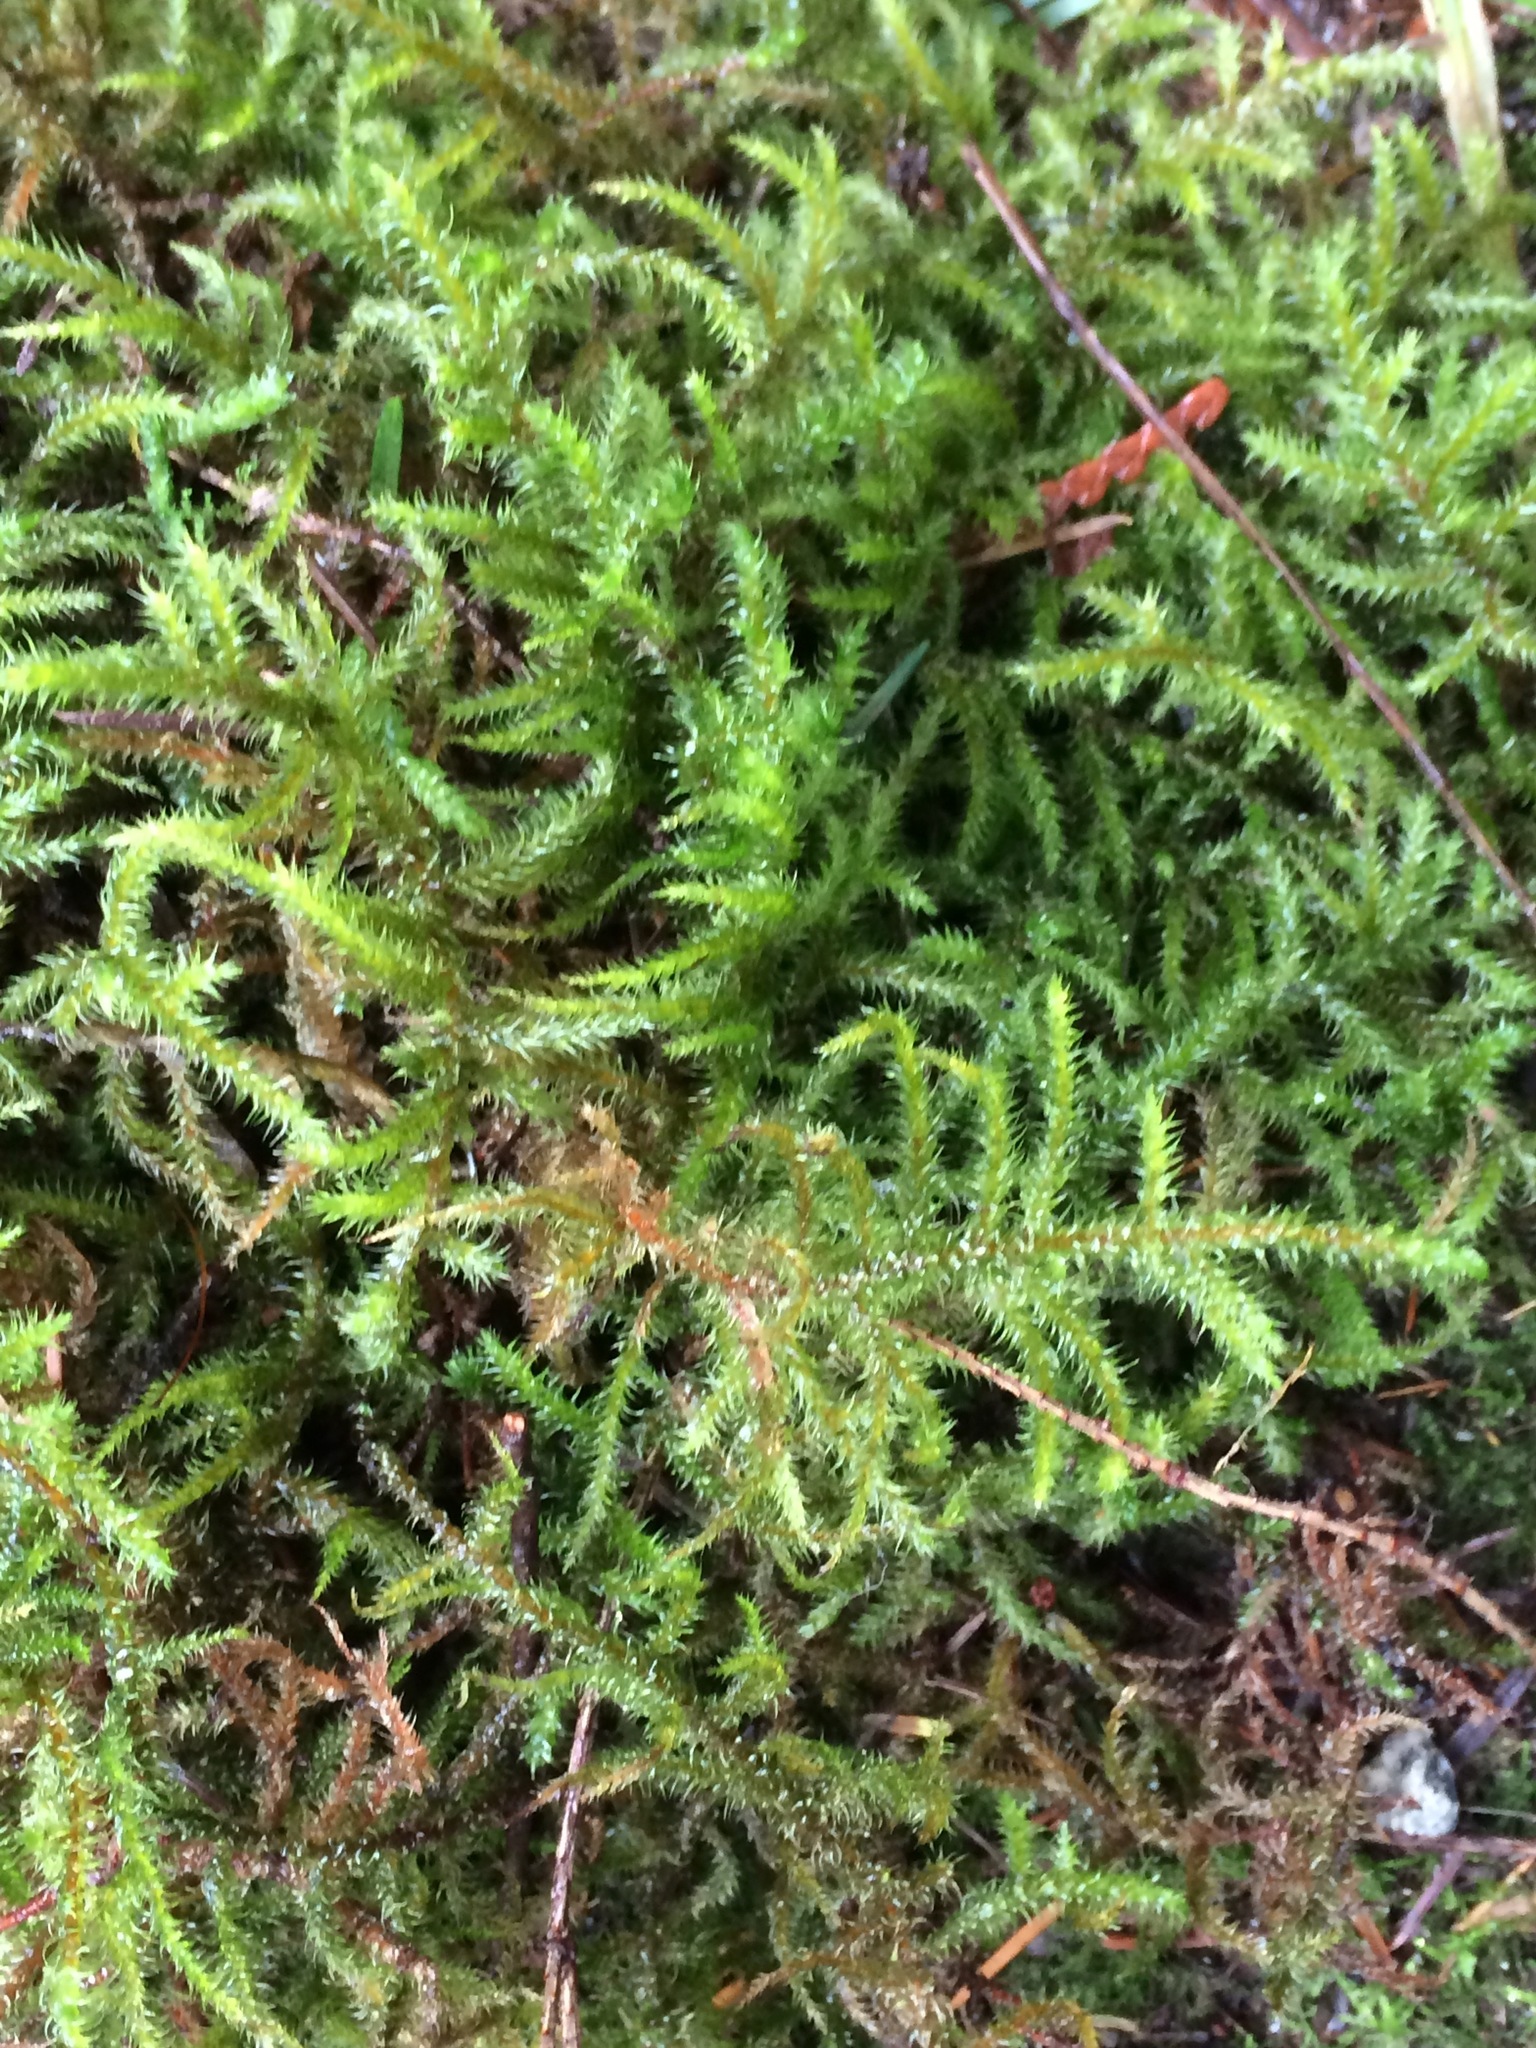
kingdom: Plantae
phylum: Bryophyta
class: Bryopsida
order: Hypnales
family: Hylocomiaceae
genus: Rhytidiadelphus
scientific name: Rhytidiadelphus loreus
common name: Lanky moss
